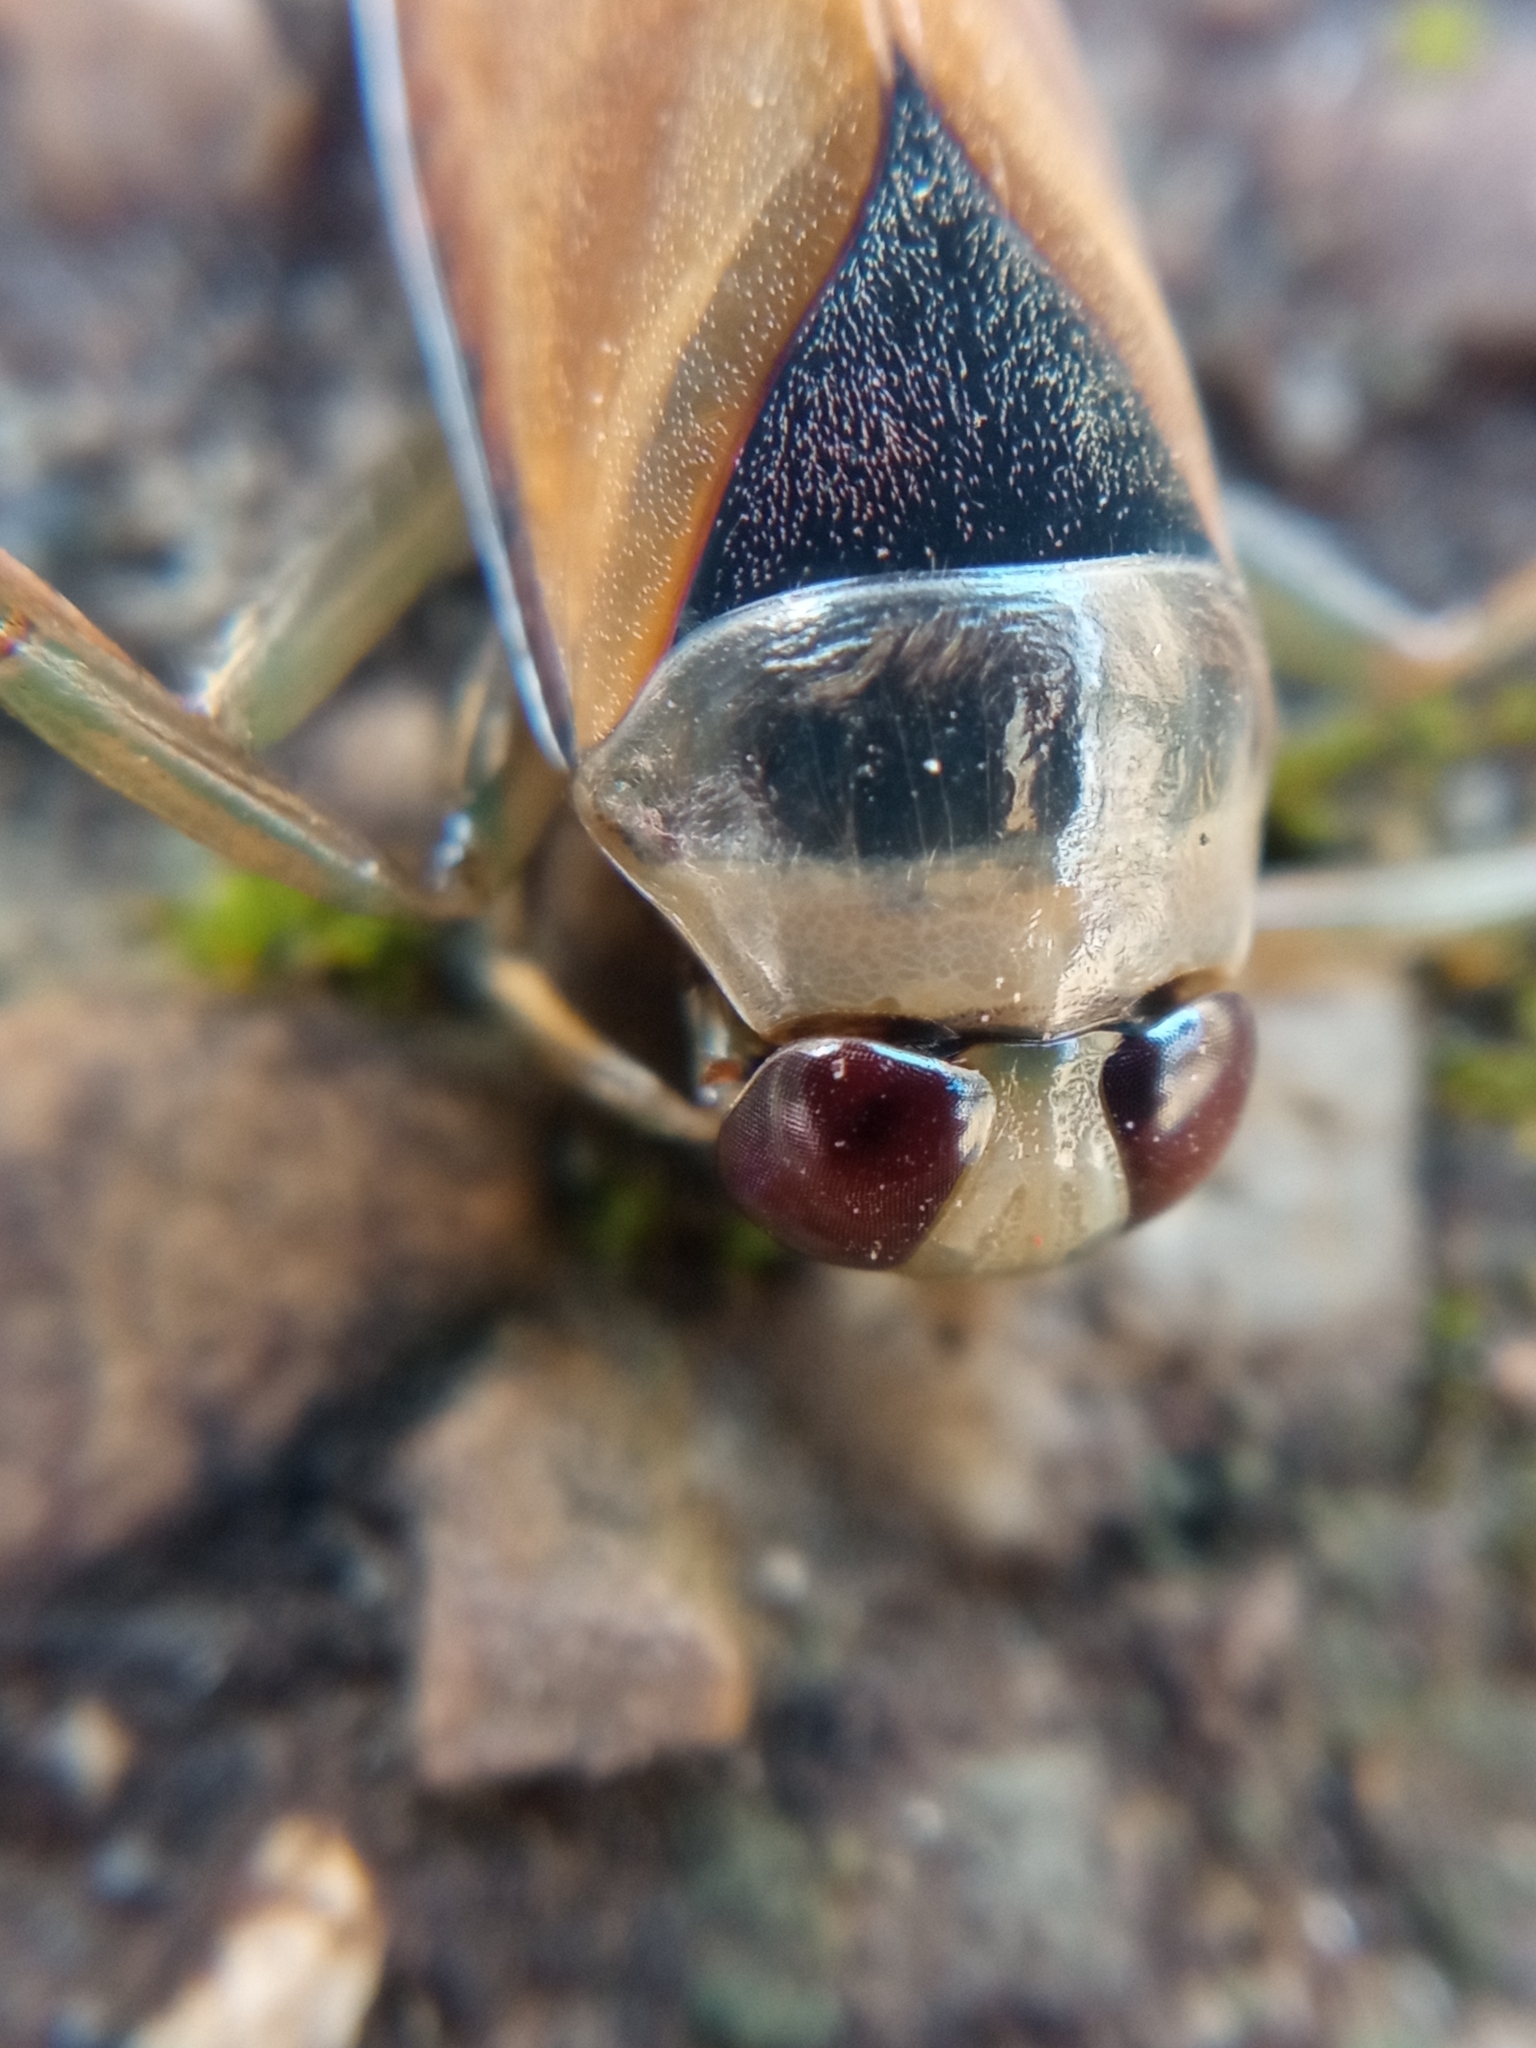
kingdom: Animalia
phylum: Arthropoda
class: Insecta
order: Hemiptera
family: Notonectidae
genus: Notonecta
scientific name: Notonecta glauca
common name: Common water-boatman
